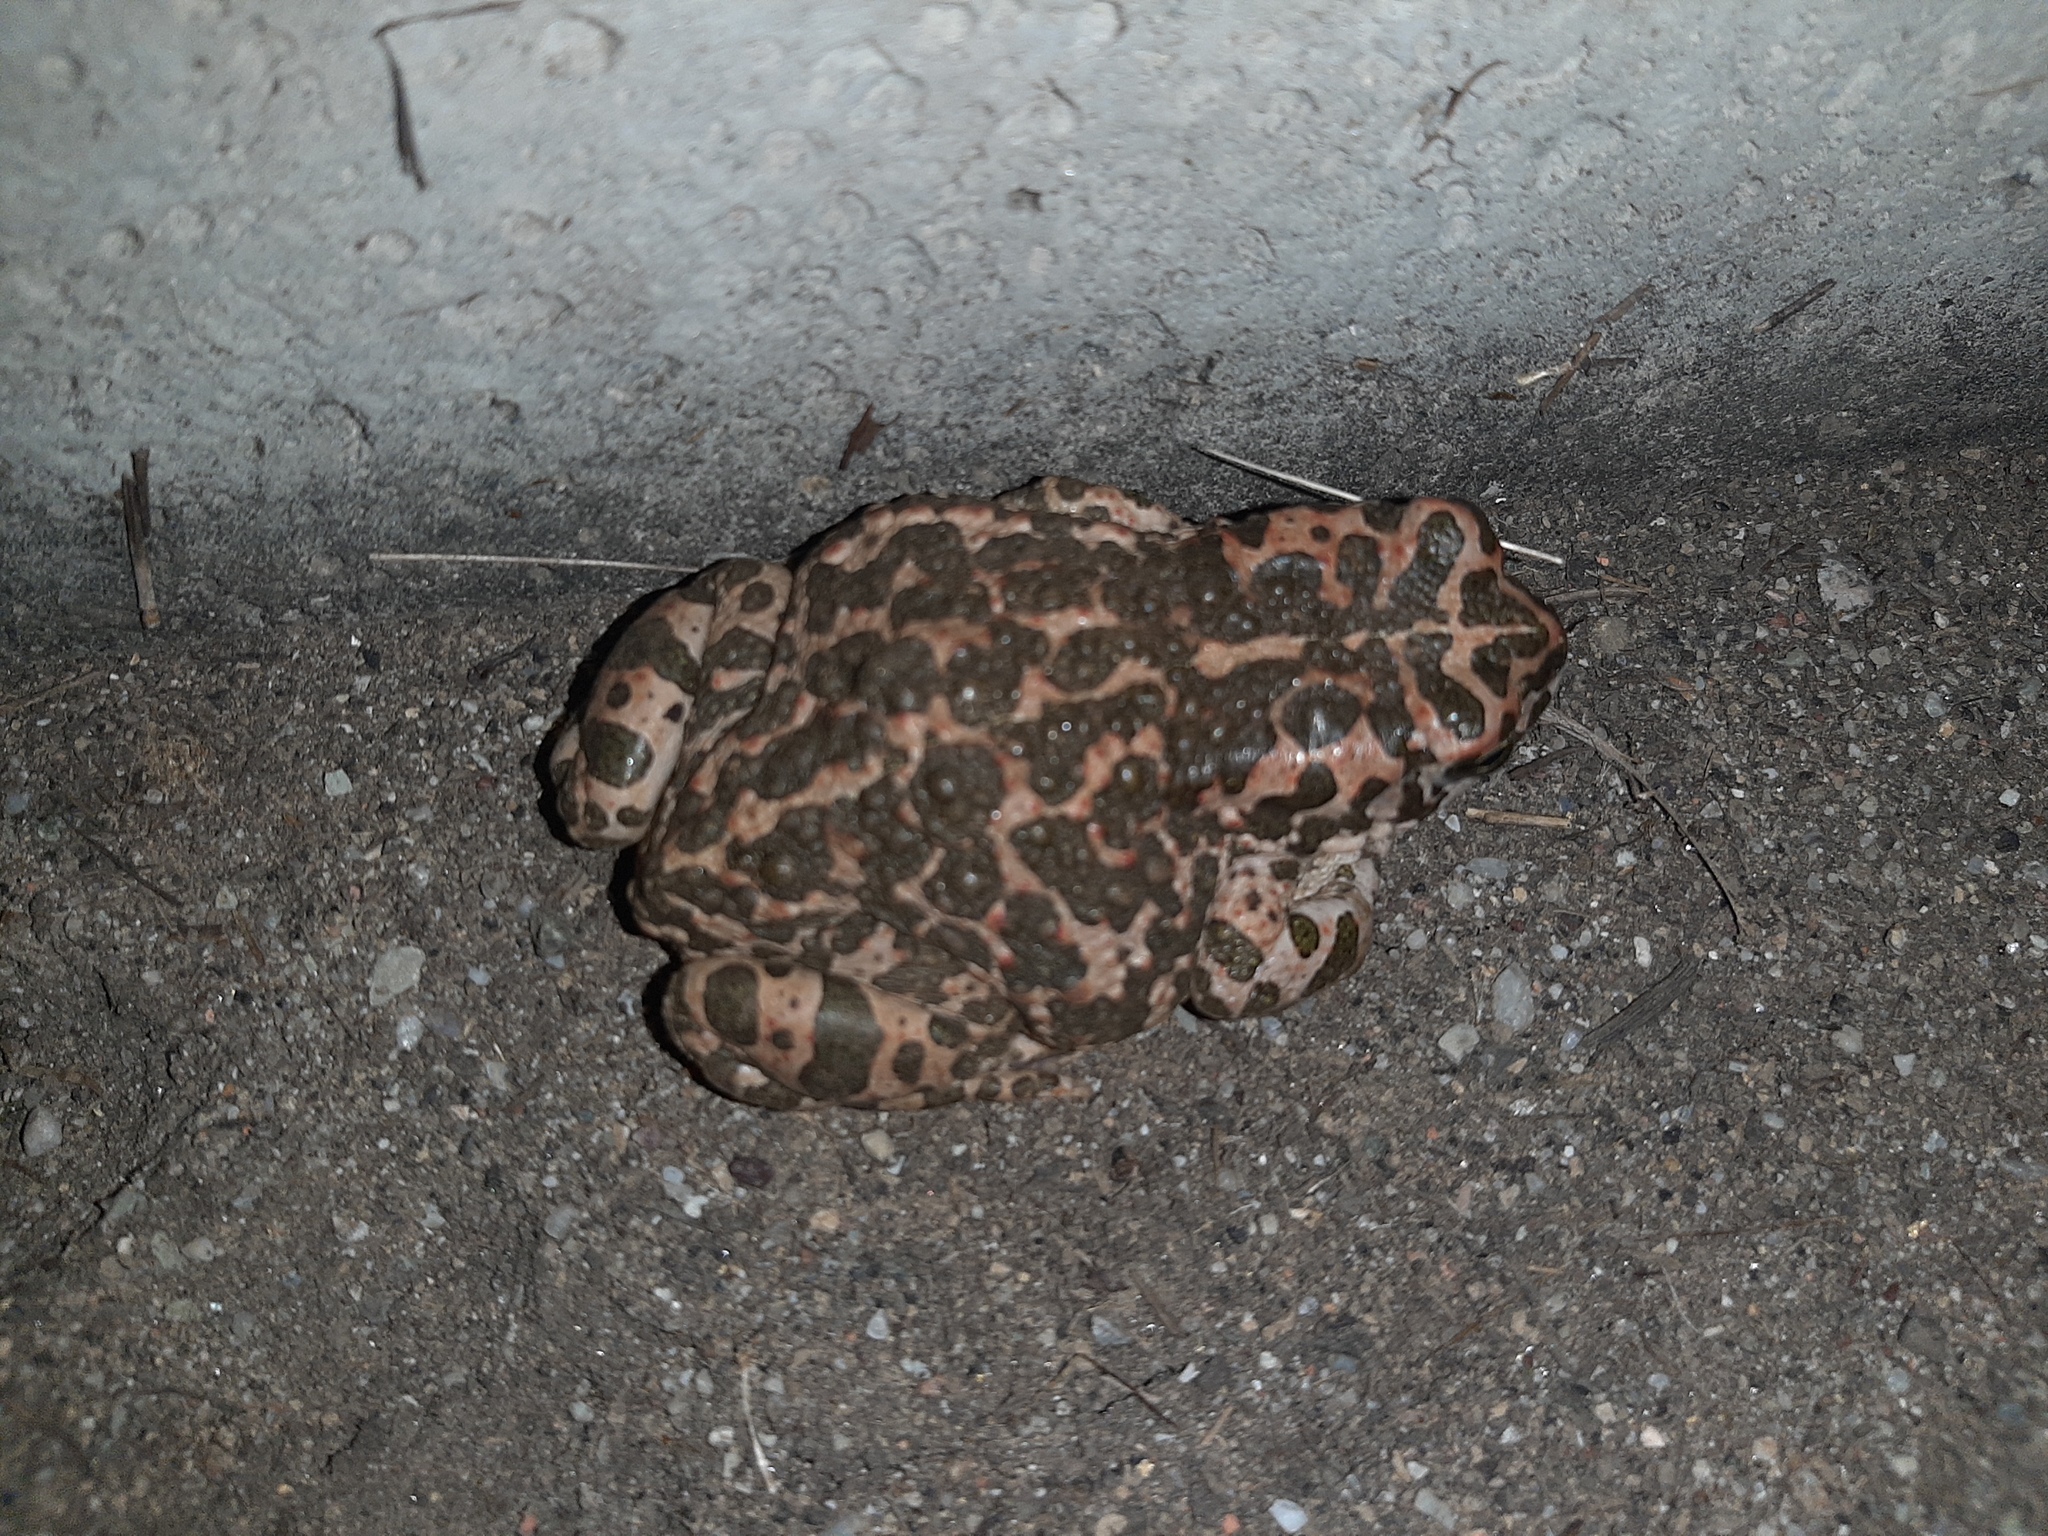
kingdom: Animalia
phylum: Chordata
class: Amphibia
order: Anura
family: Bufonidae
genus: Bufotes
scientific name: Bufotes viridis
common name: European green toad
